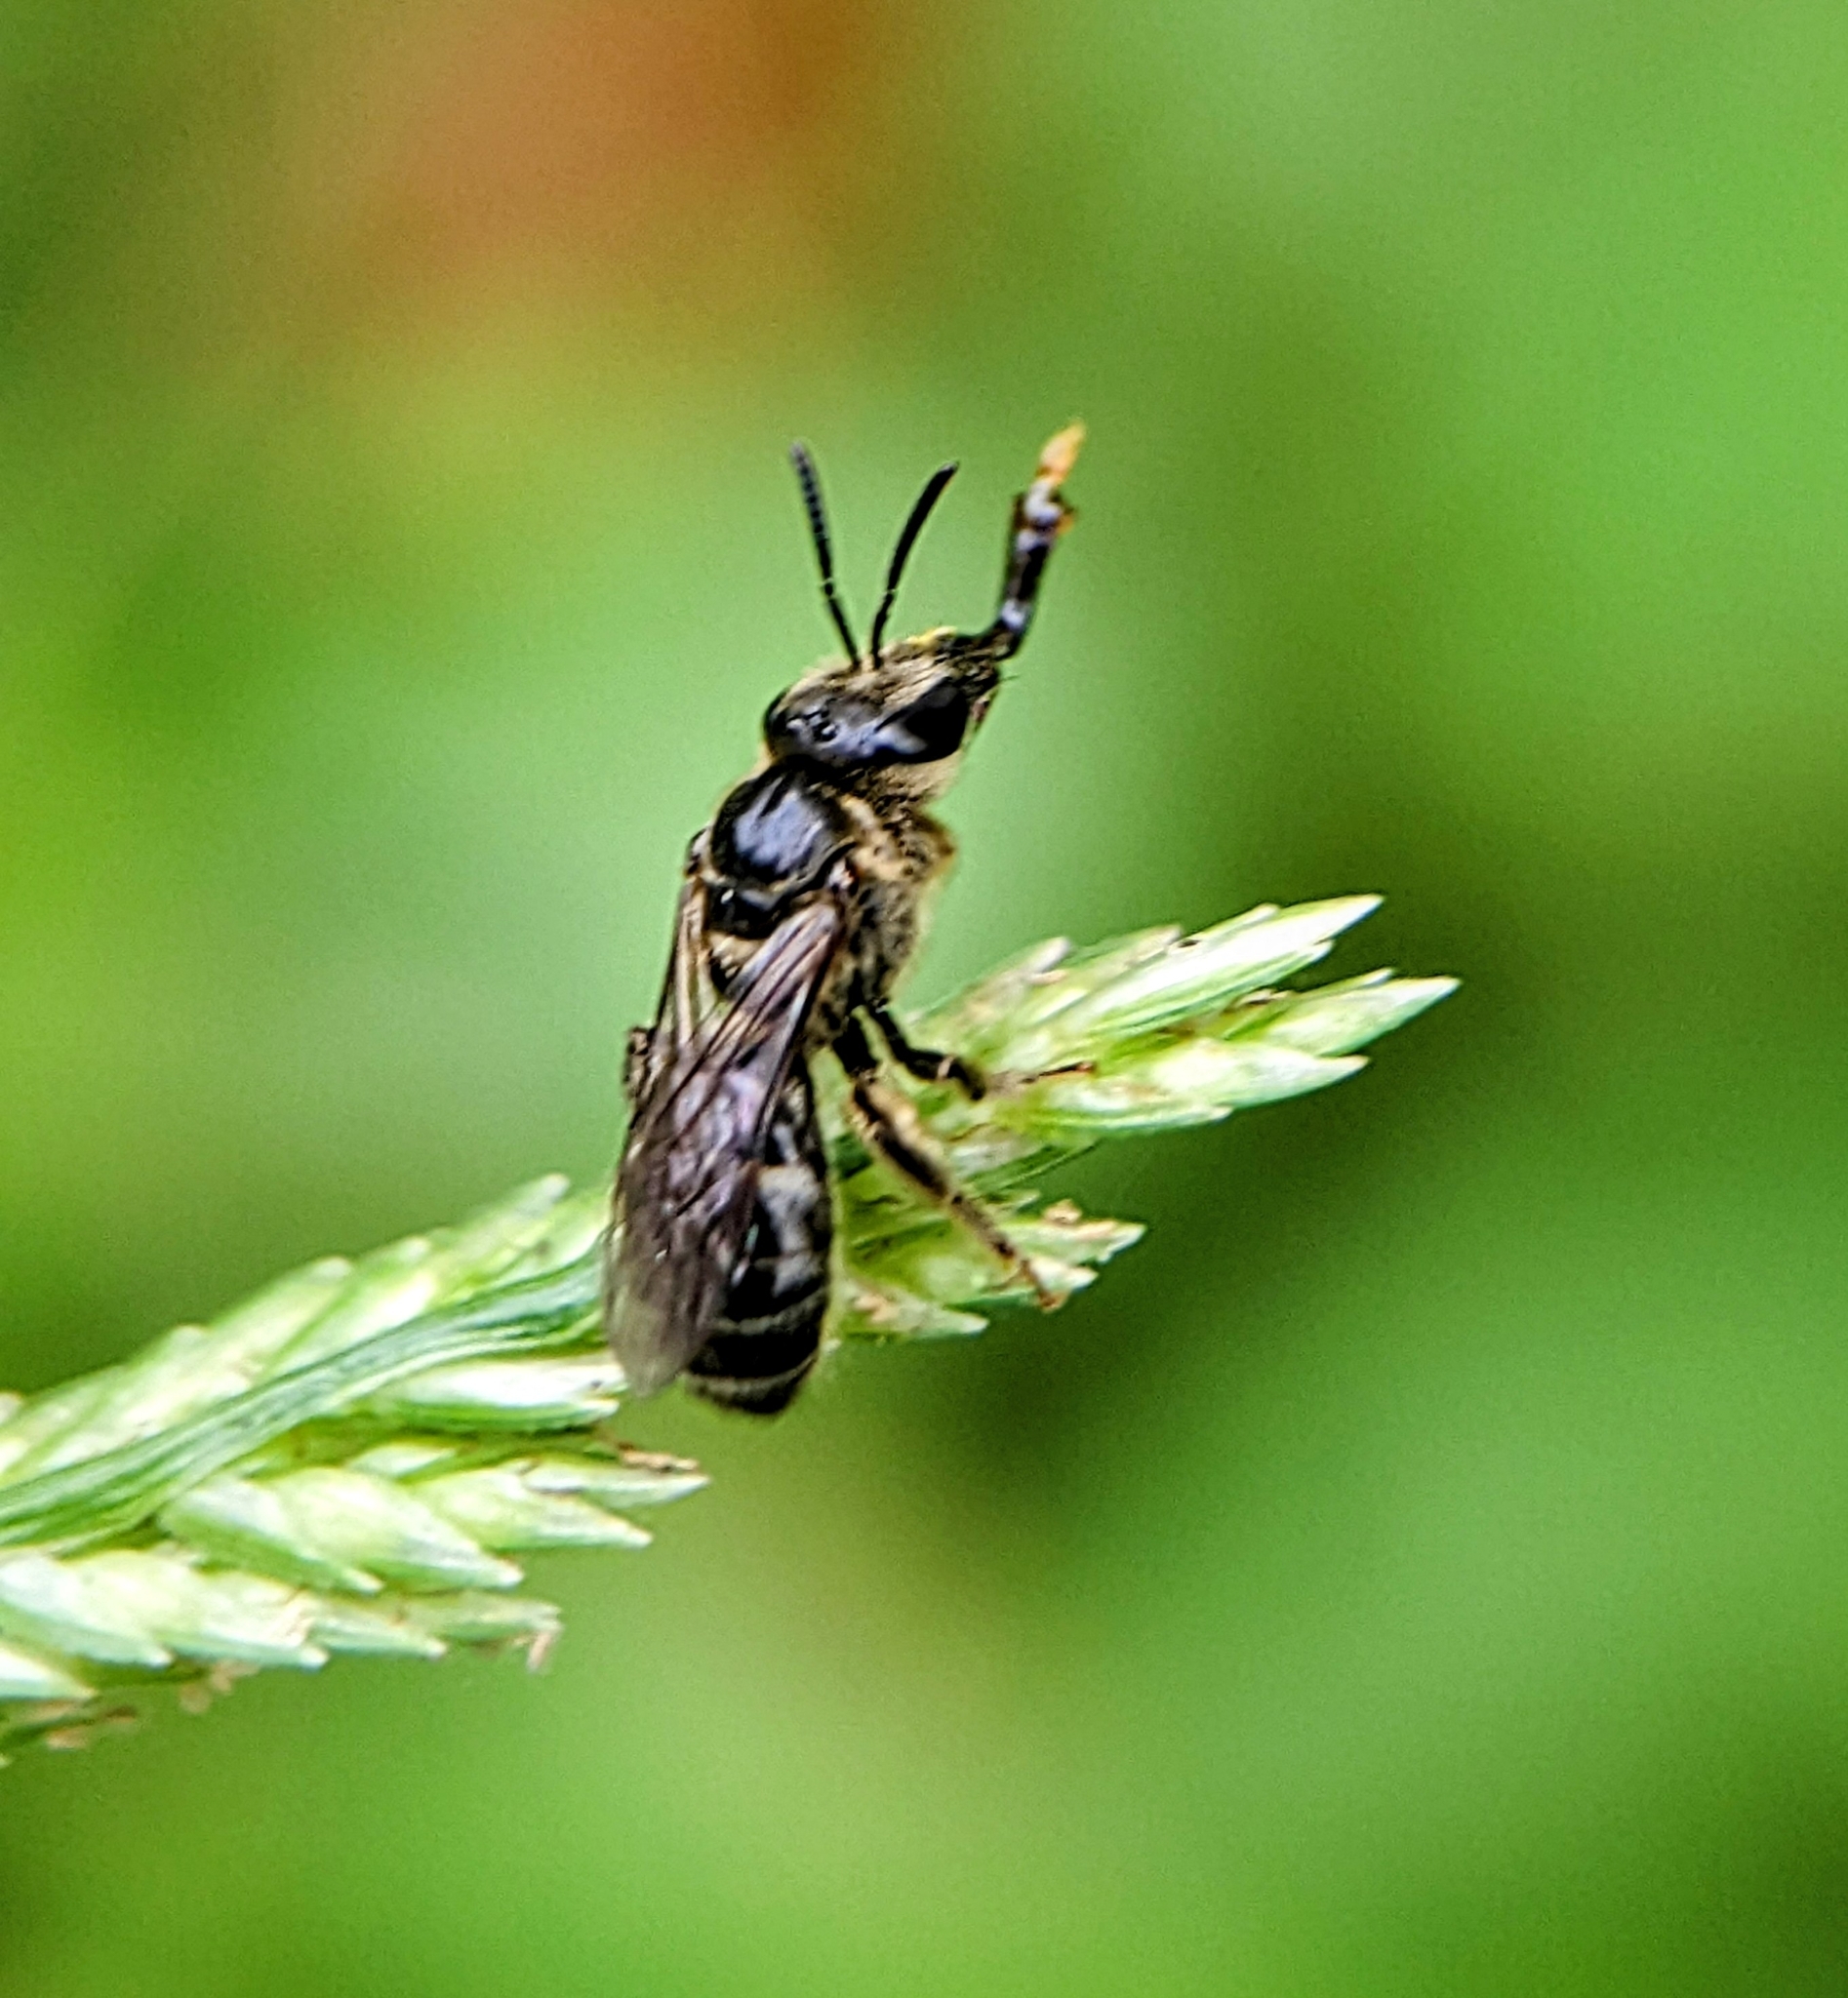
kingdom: Animalia
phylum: Arthropoda
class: Insecta
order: Hymenoptera
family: Halictidae
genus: Lasioglossum
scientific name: Lasioglossum albescens
